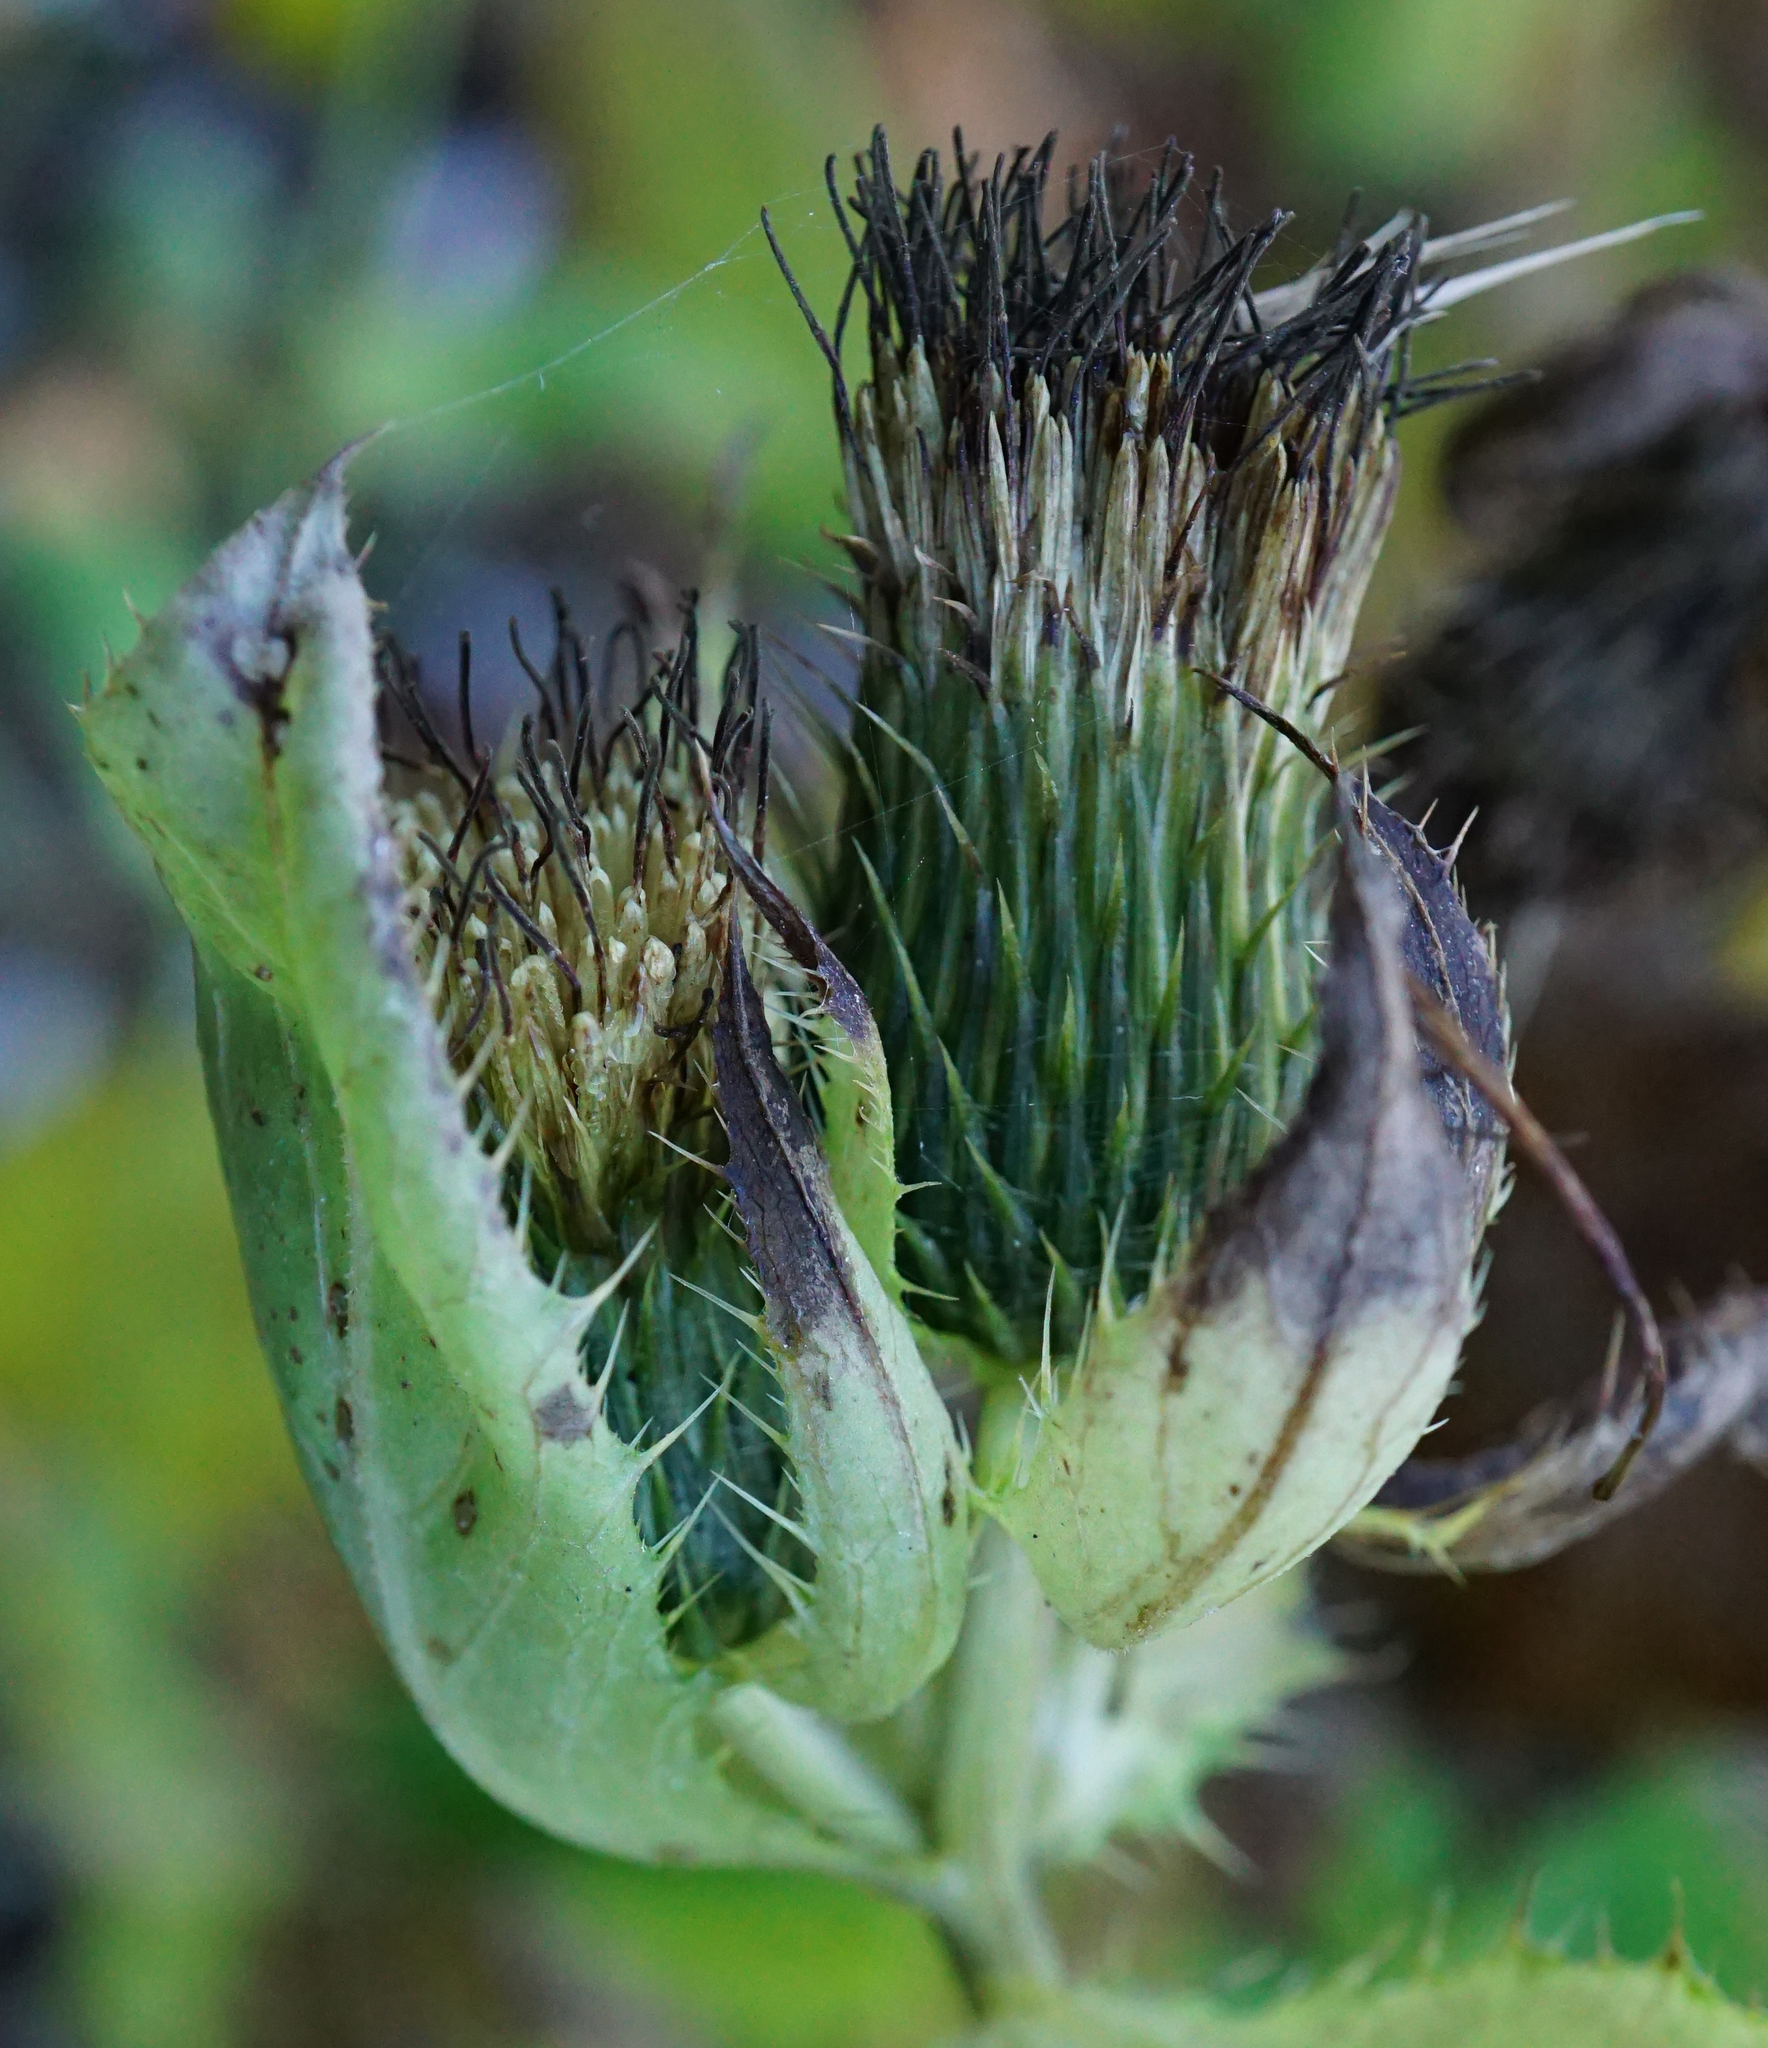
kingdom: Plantae
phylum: Tracheophyta
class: Magnoliopsida
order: Asterales
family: Asteraceae
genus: Cirsium
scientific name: Cirsium oleraceum
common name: Cabbage thistle
